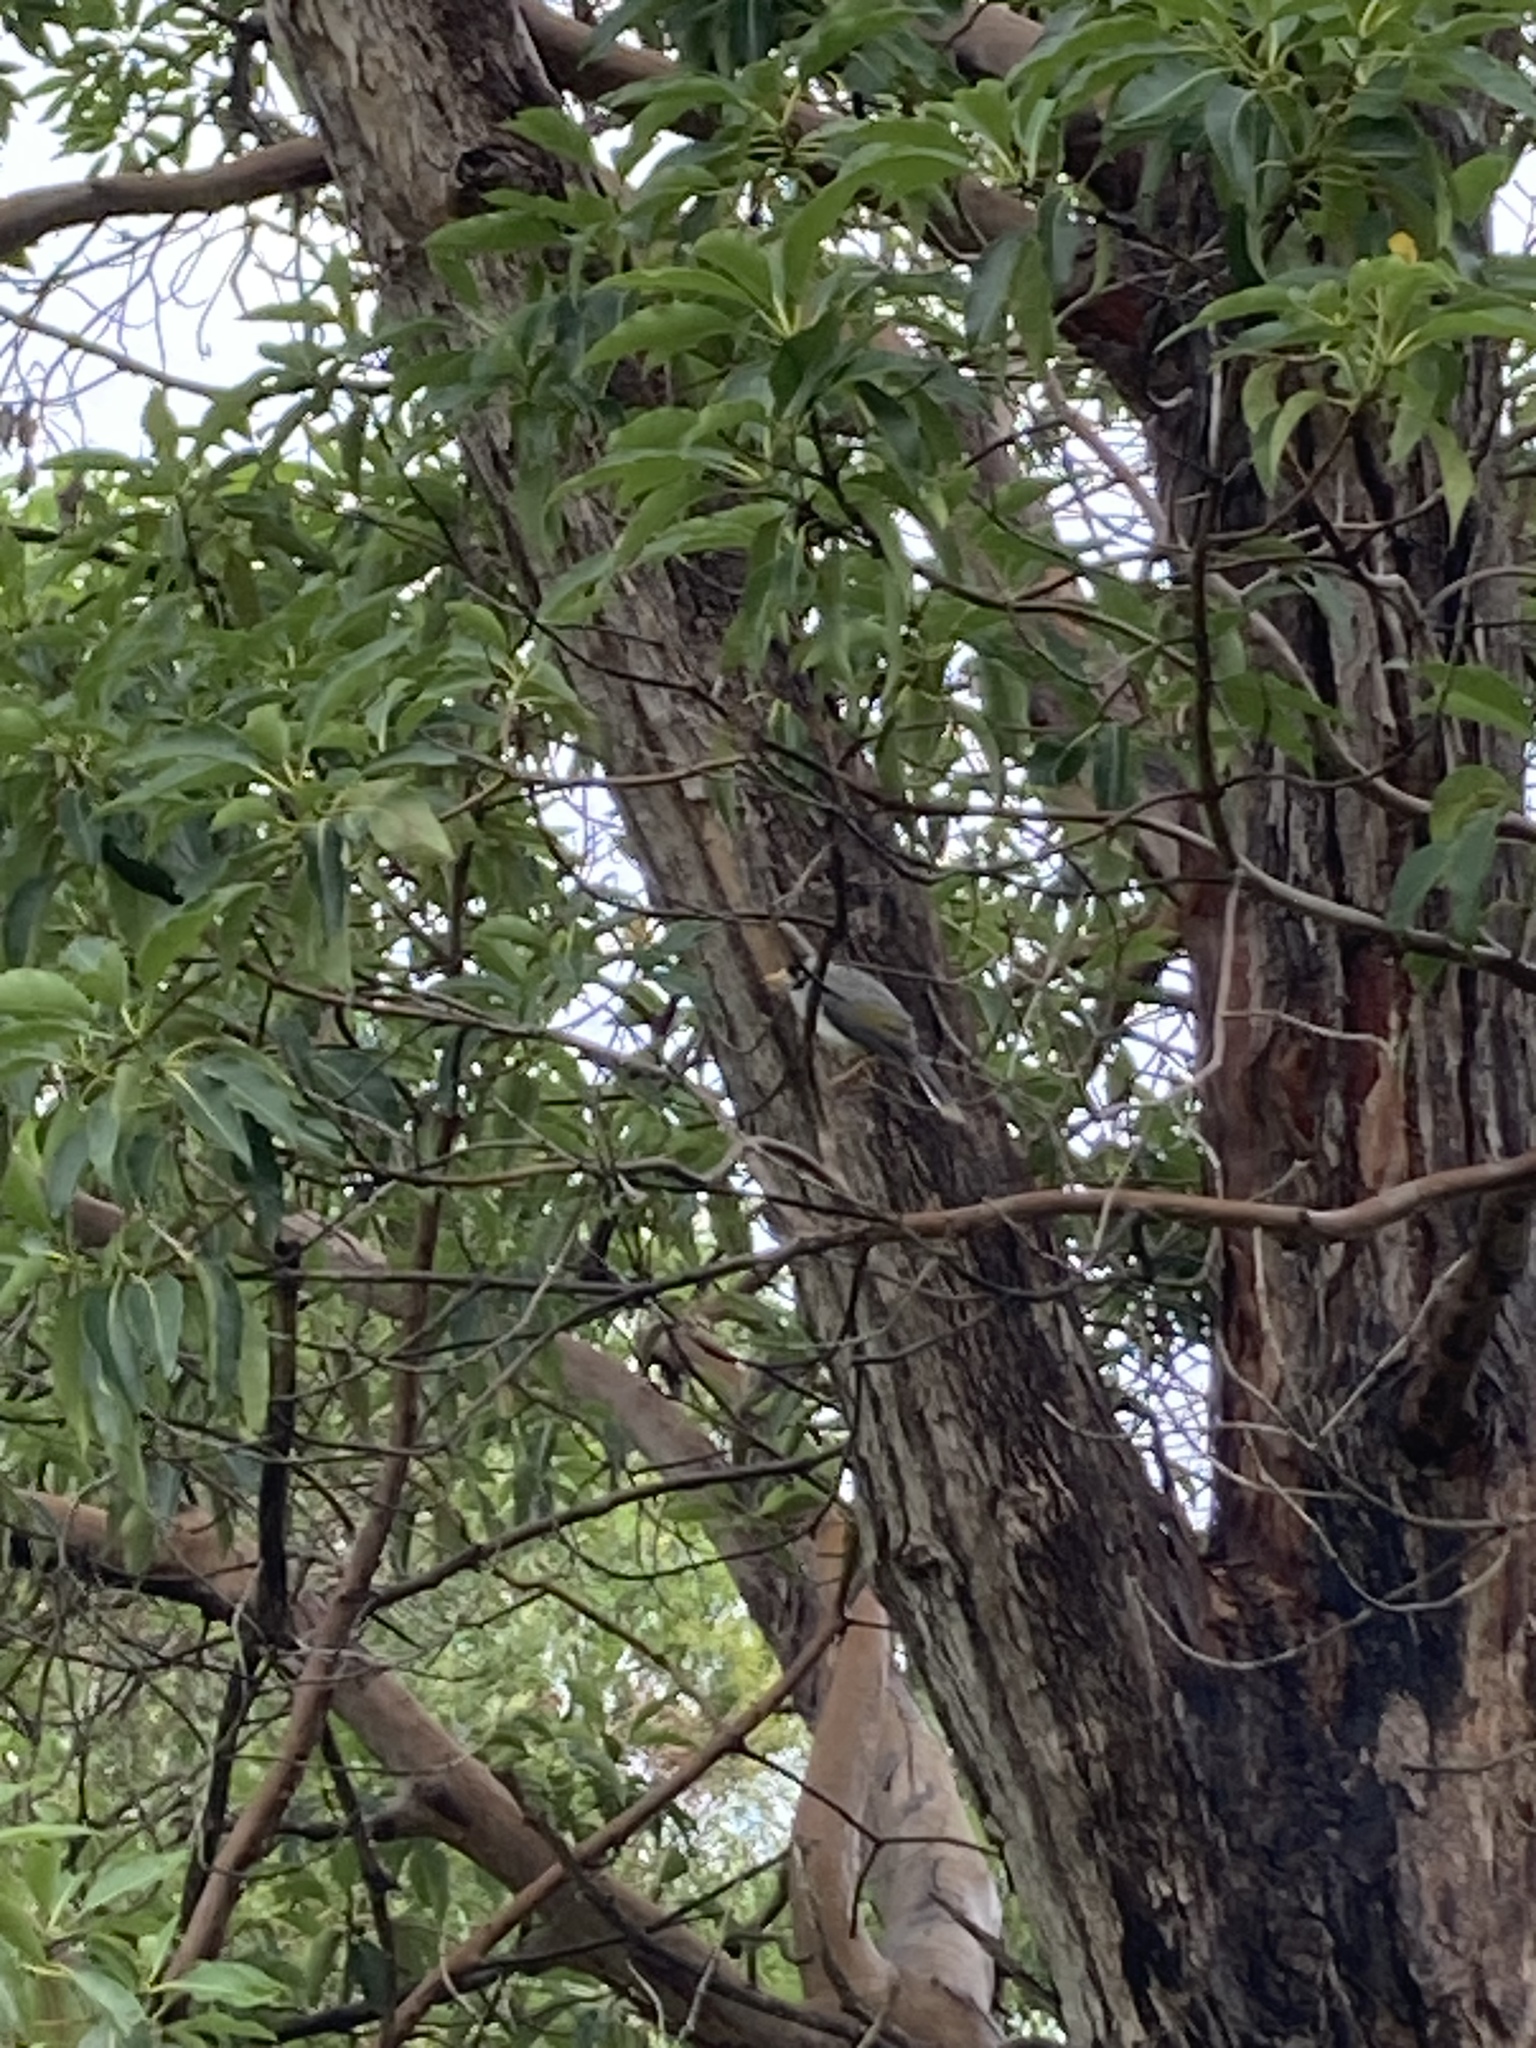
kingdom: Animalia
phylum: Chordata
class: Aves
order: Passeriformes
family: Meliphagidae
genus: Manorina
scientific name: Manorina melanocephala
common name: Noisy miner
